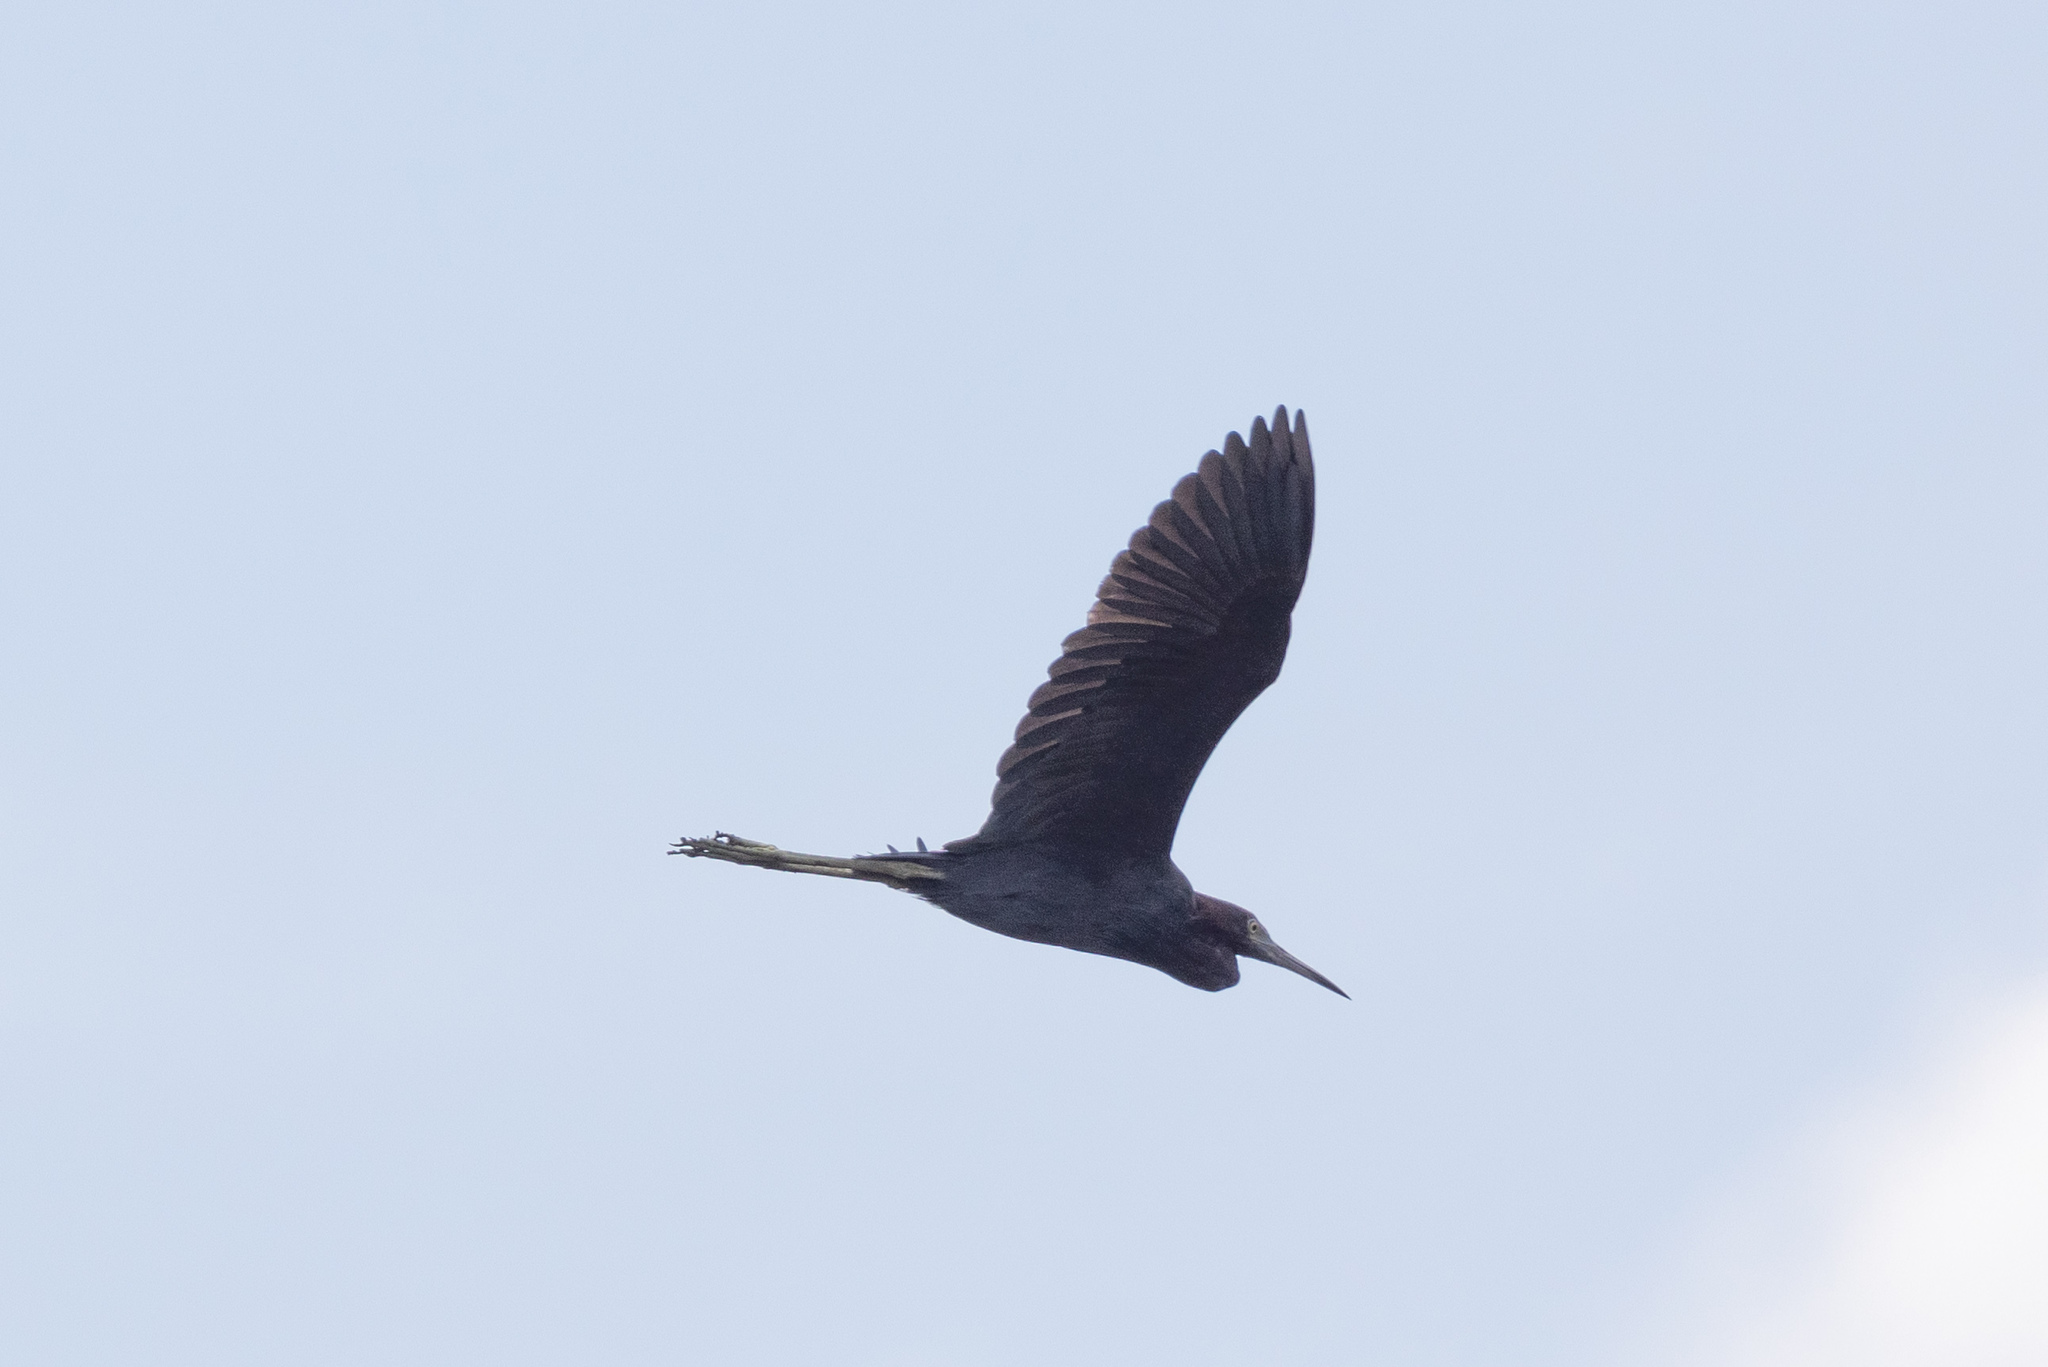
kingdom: Animalia
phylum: Chordata
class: Aves
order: Pelecaniformes
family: Ardeidae
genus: Egretta
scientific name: Egretta caerulea
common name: Little blue heron
